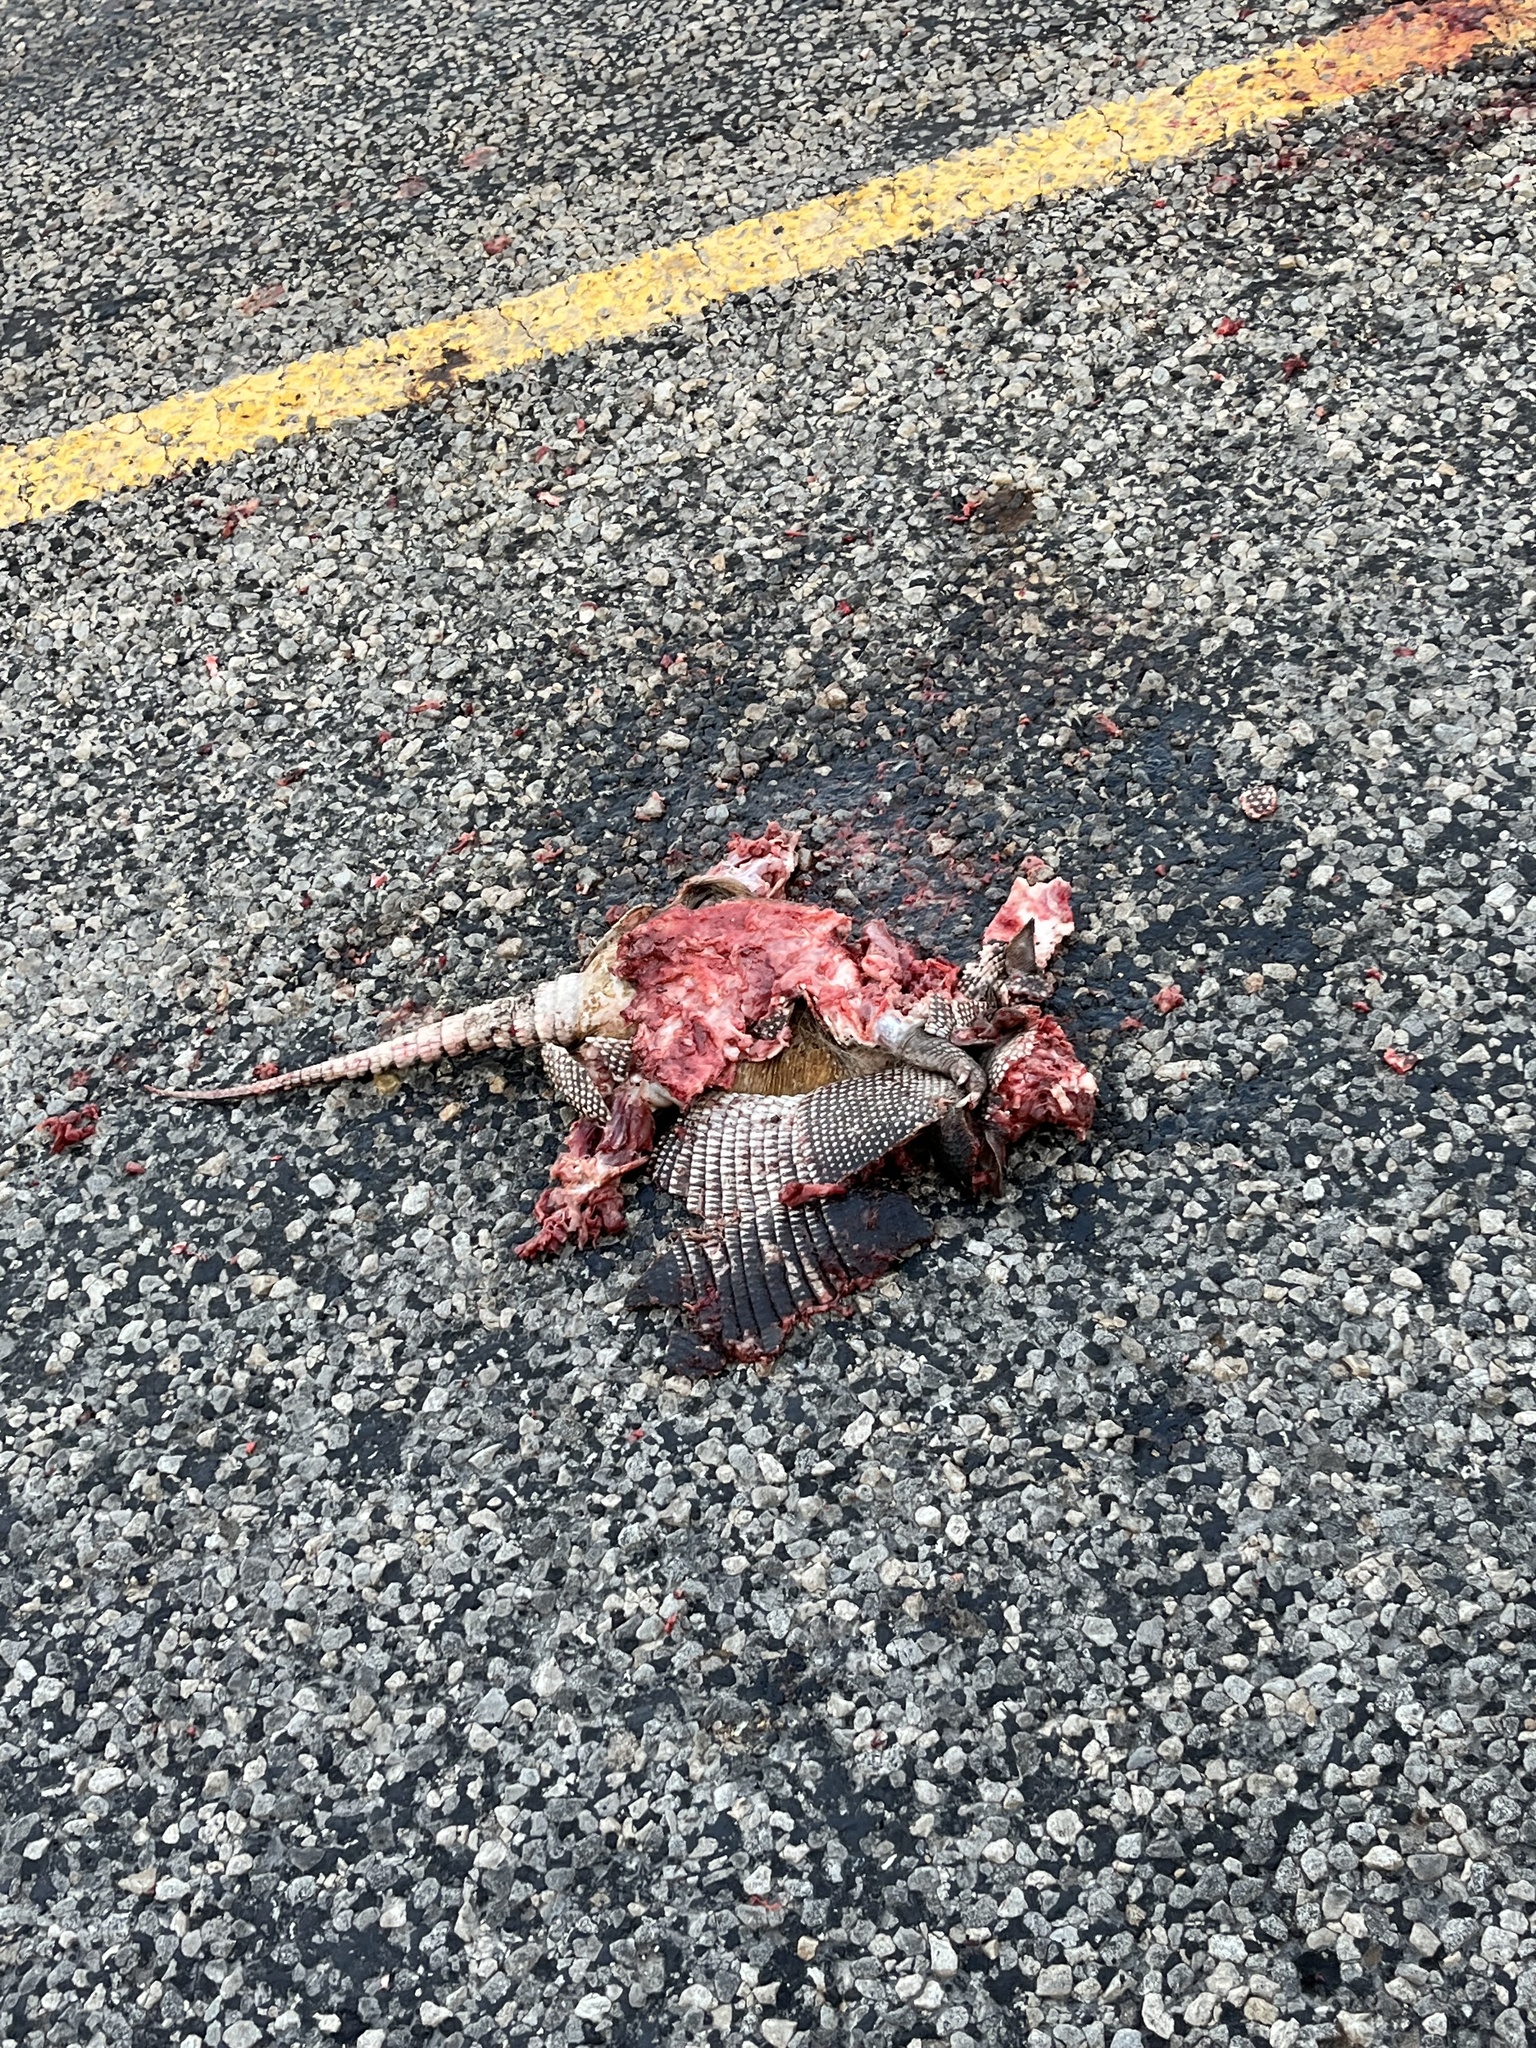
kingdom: Animalia
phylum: Chordata
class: Mammalia
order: Cingulata
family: Dasypodidae
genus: Dasypus
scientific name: Dasypus novemcinctus
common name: Nine-banded armadillo
